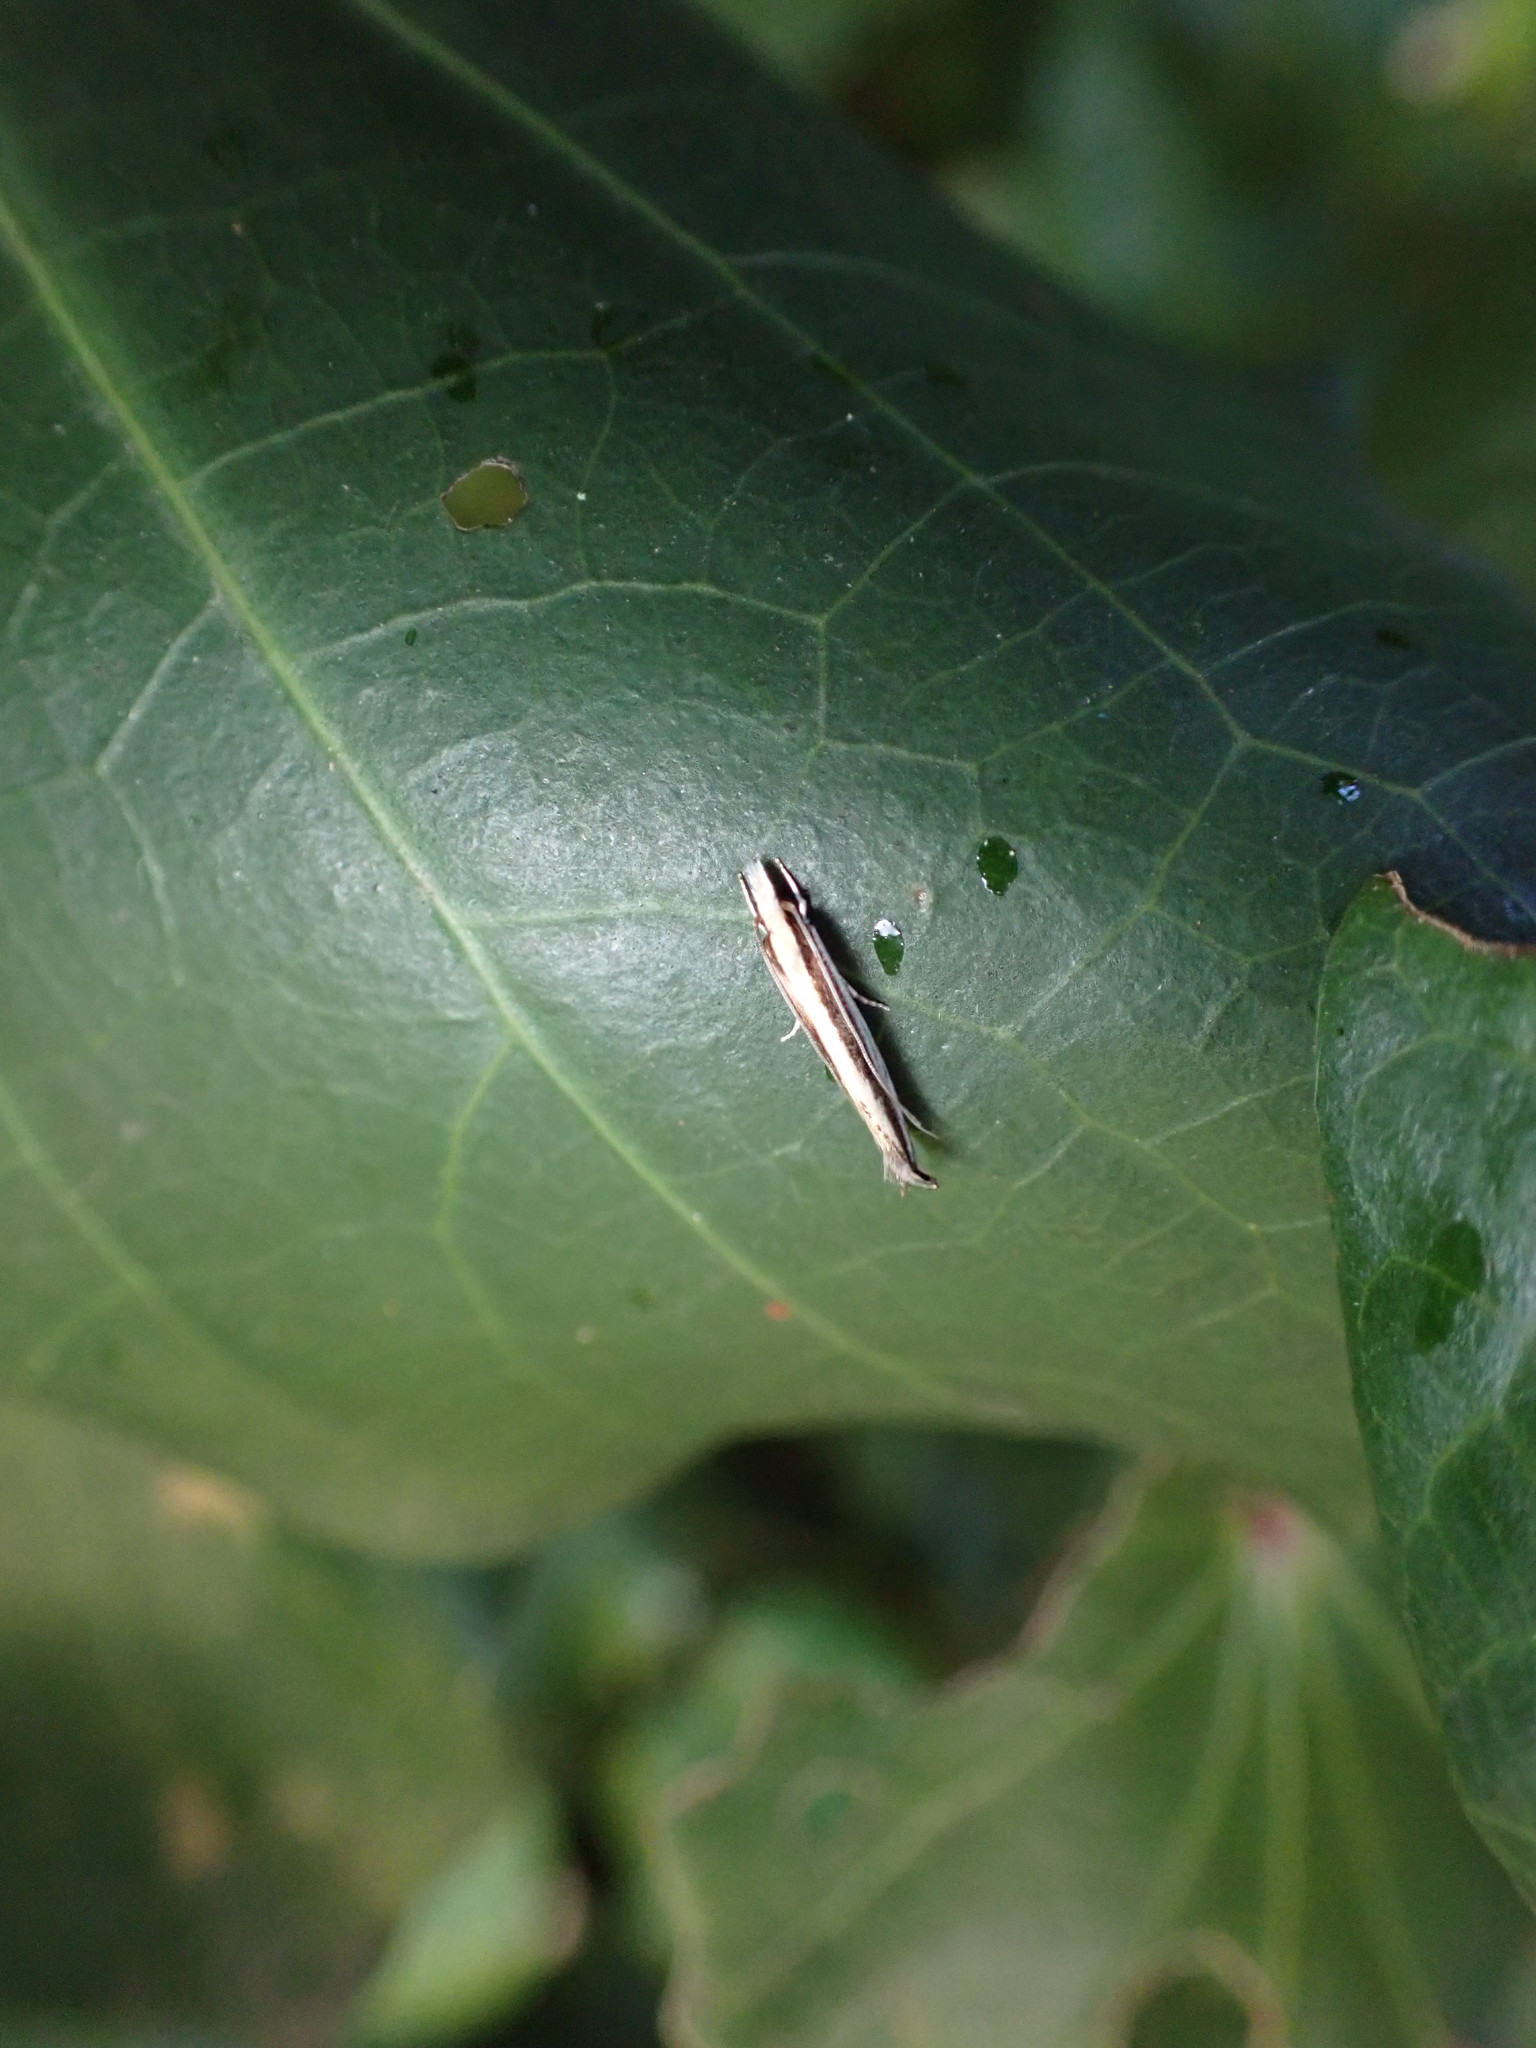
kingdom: Animalia
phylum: Arthropoda
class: Insecta
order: Lepidoptera
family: Tineidae
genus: Erechthias
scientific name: Erechthias stilbella
